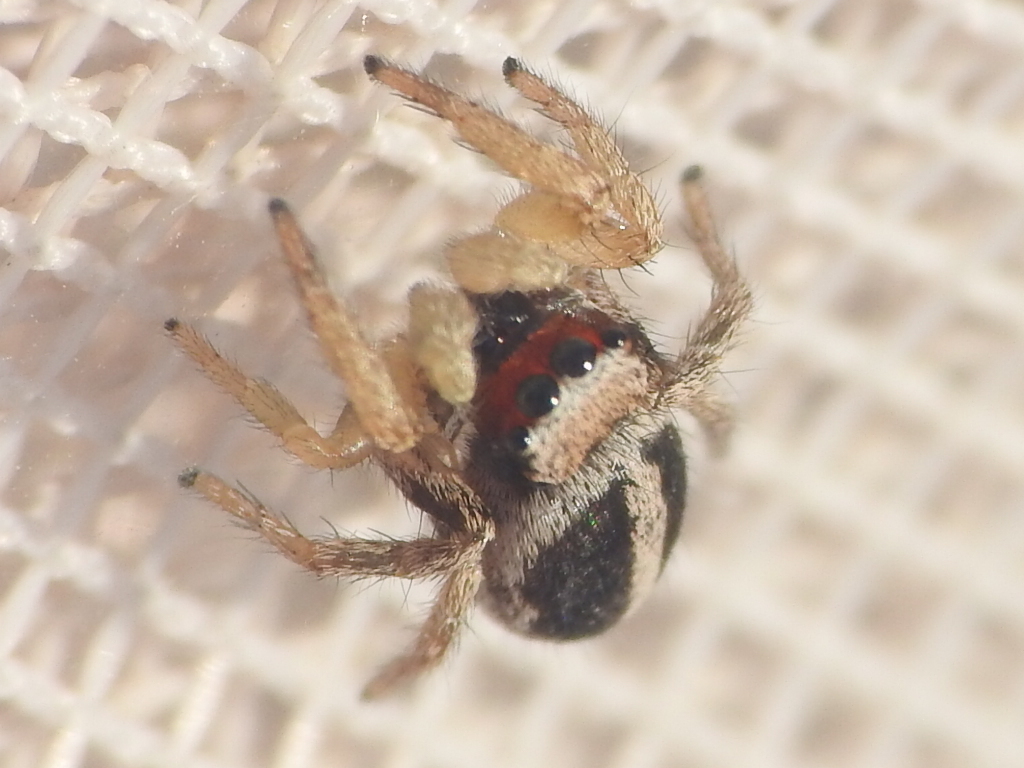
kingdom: Animalia
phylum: Arthropoda
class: Arachnida
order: Araneae
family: Salticidae
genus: Habronattus
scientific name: Habronattus virgulatus
